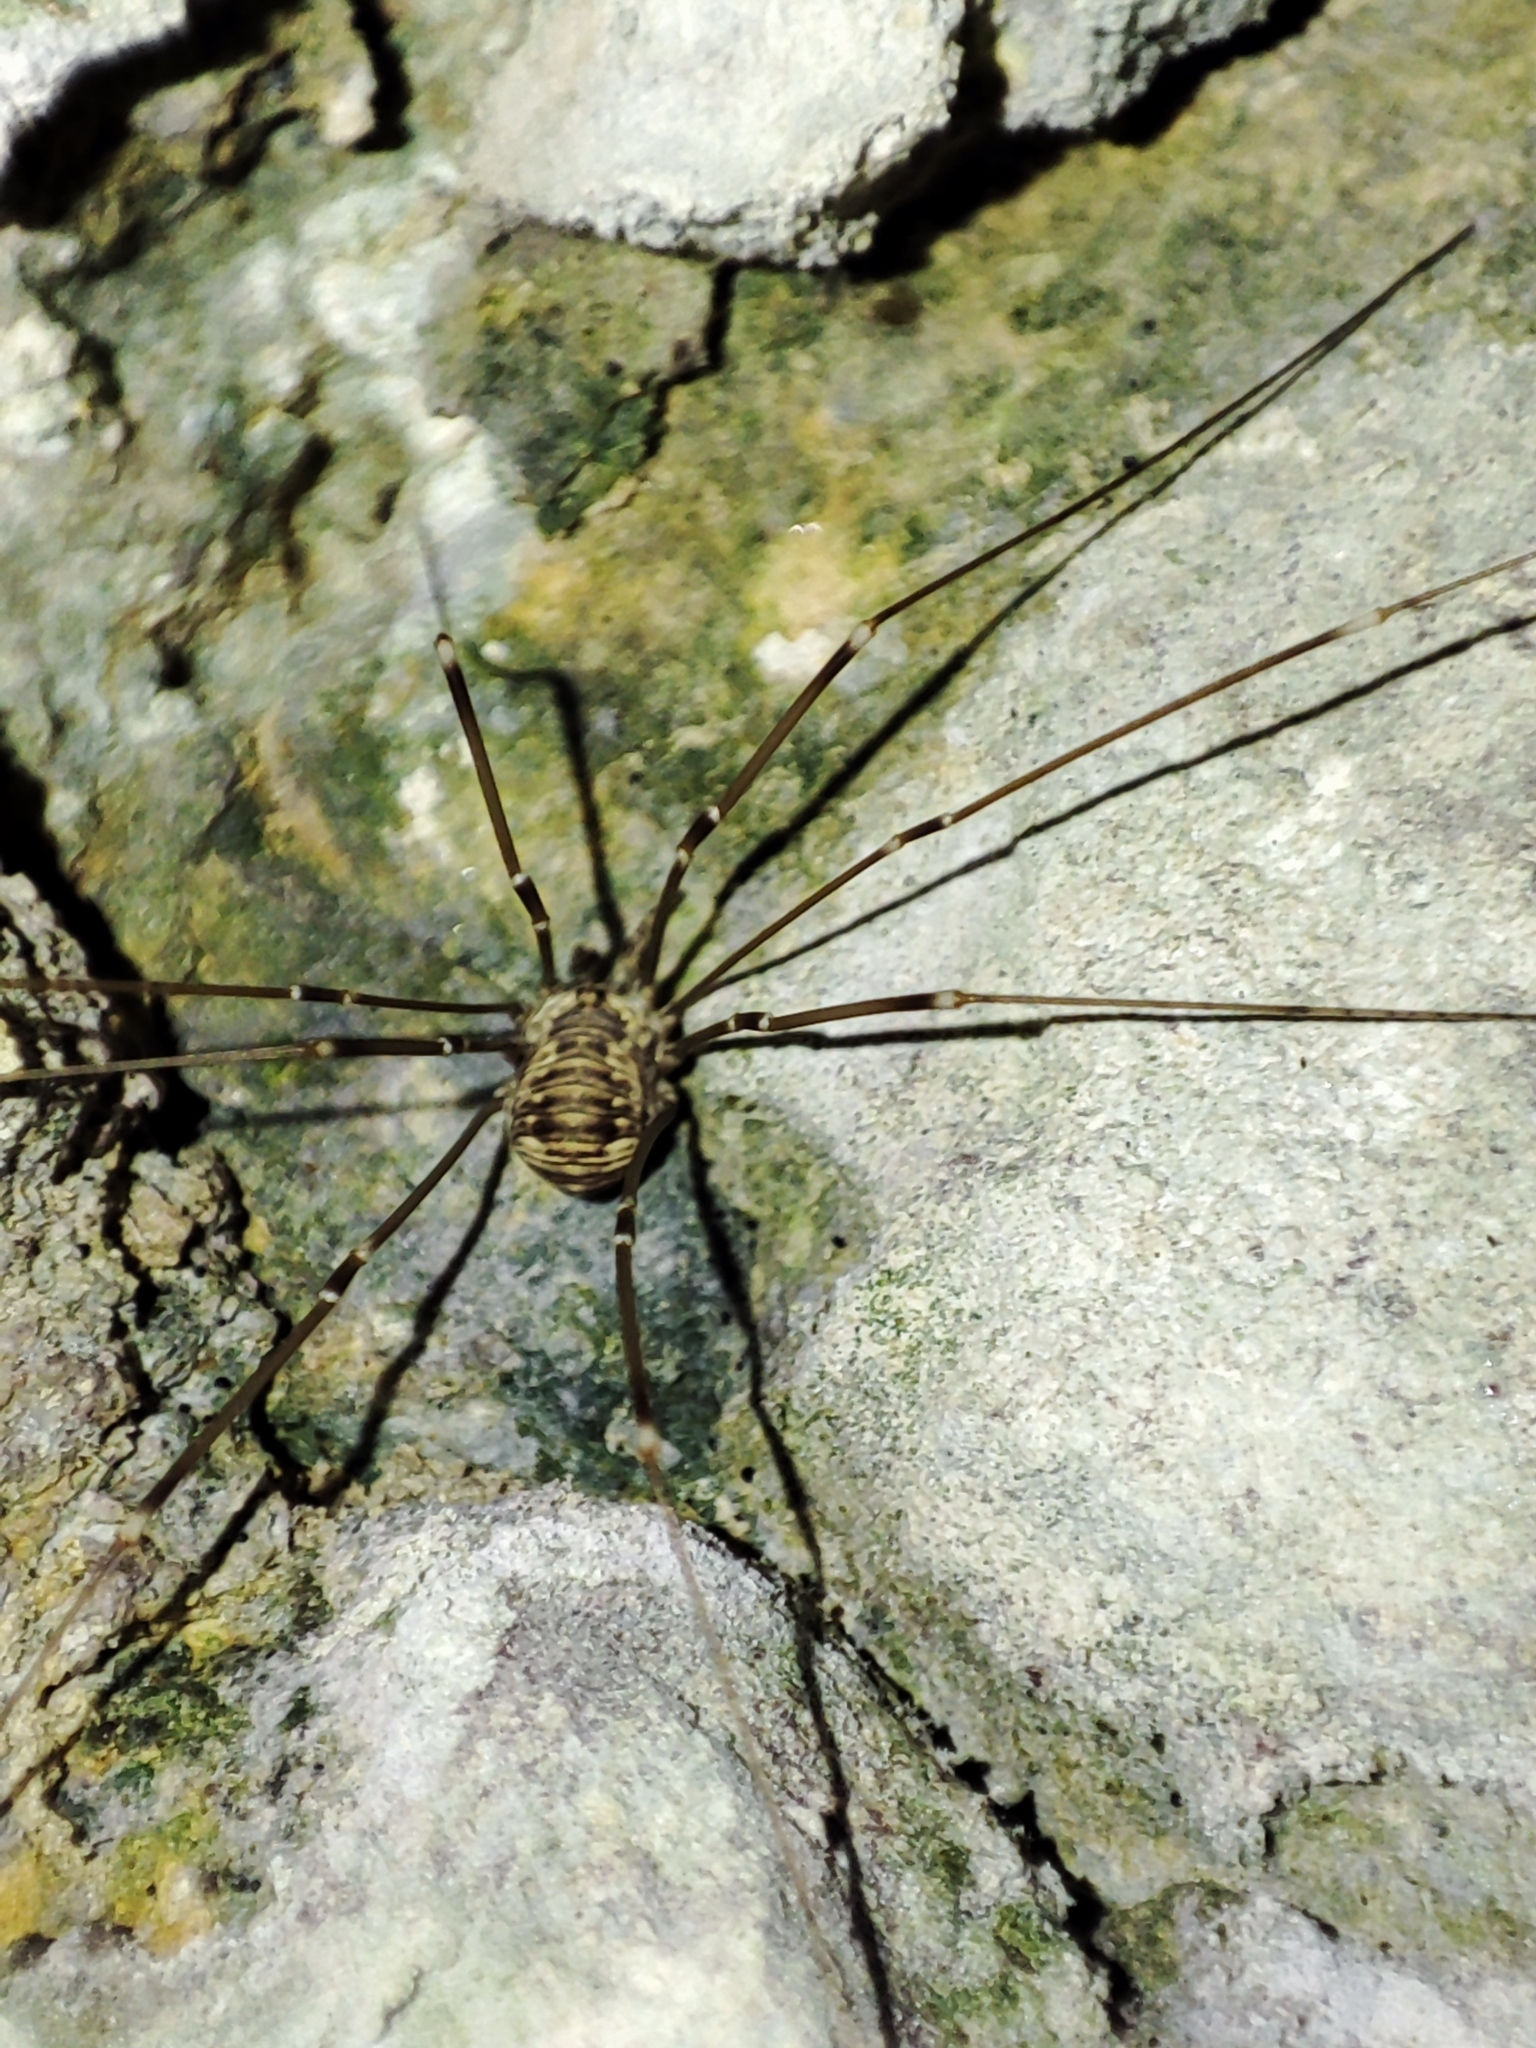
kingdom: Animalia
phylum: Arthropoda
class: Arachnida
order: Opiliones
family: Sclerosomatidae
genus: Leiobunum
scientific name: Leiobunum limbatum
